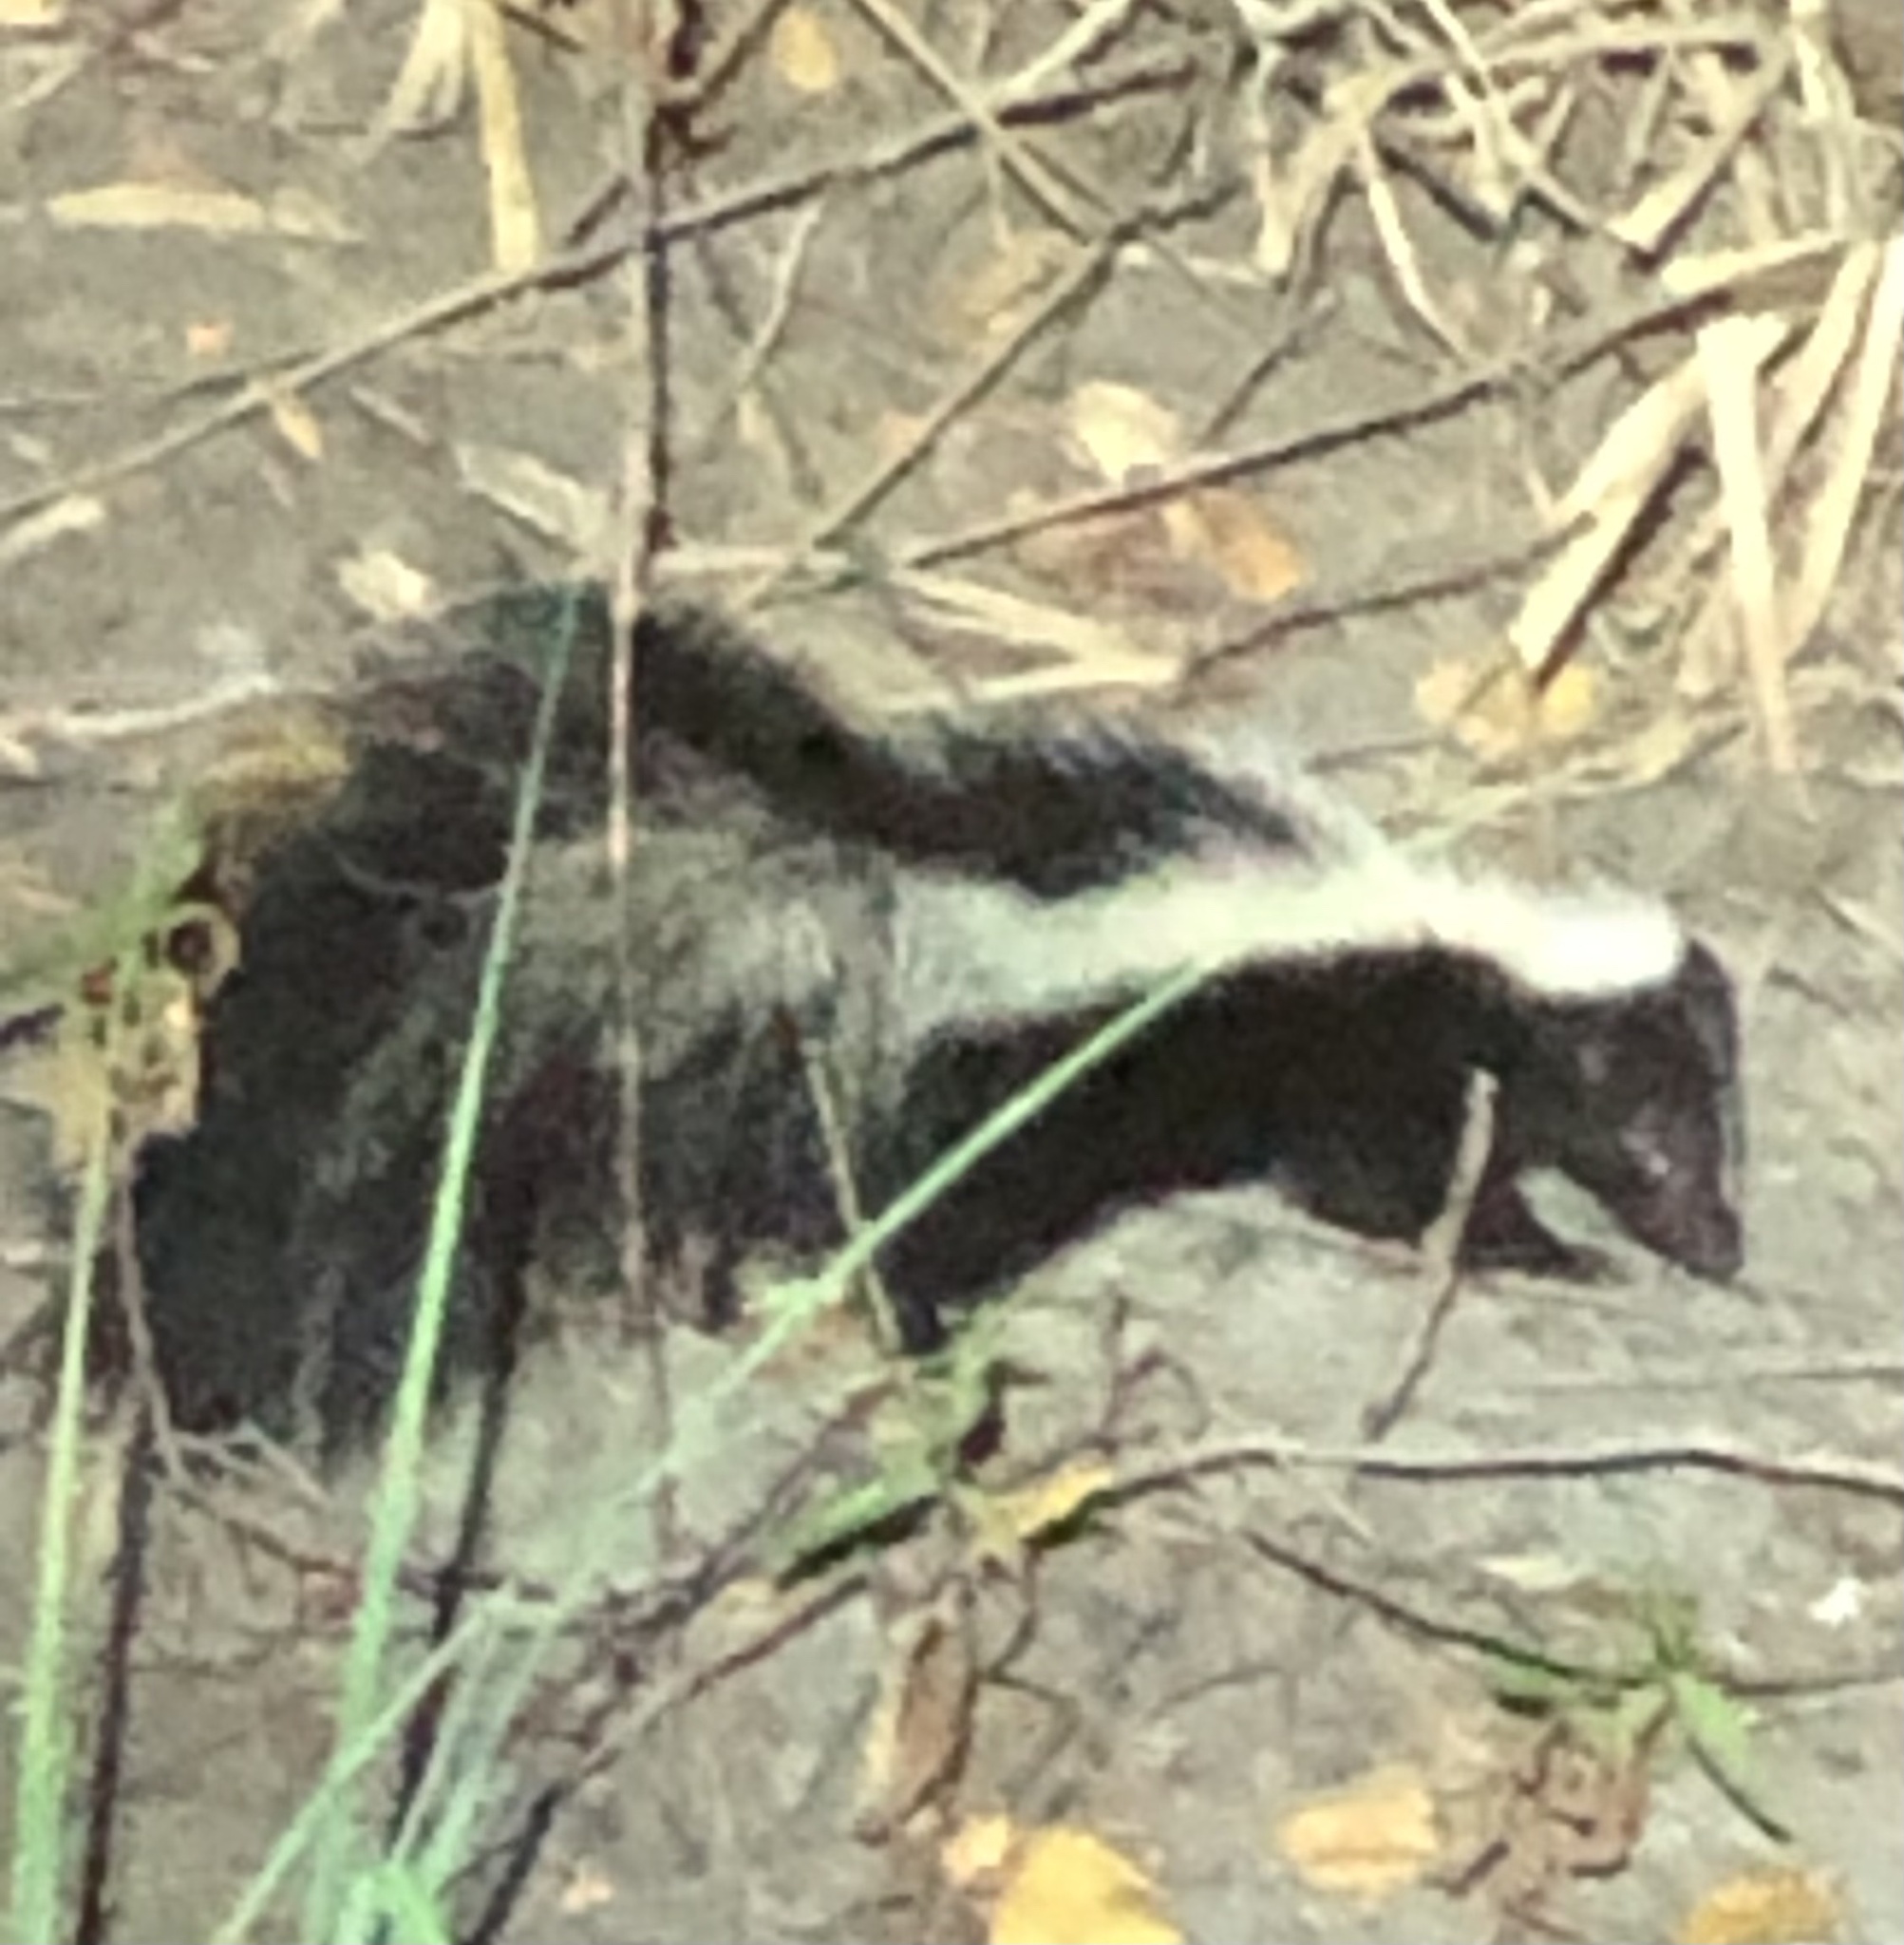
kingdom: Animalia
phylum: Chordata
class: Mammalia
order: Carnivora
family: Mephitidae
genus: Mephitis
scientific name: Mephitis mephitis
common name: Striped skunk
